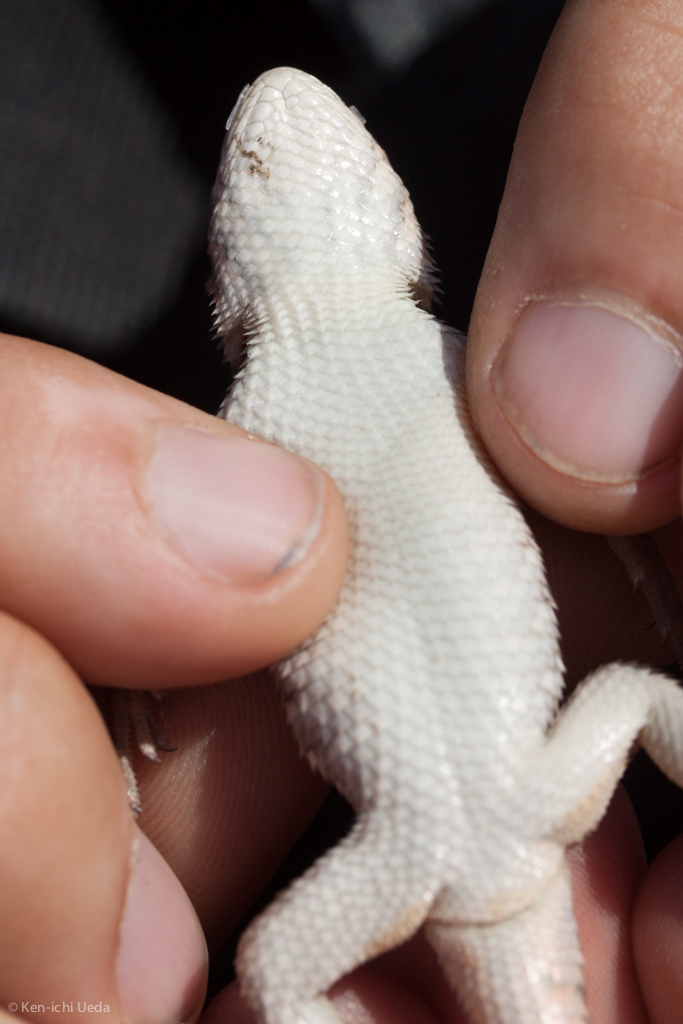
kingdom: Animalia
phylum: Chordata
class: Squamata
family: Phrynosomatidae
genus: Sceloporus
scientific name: Sceloporus horridus
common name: Few-pored rough lizard
